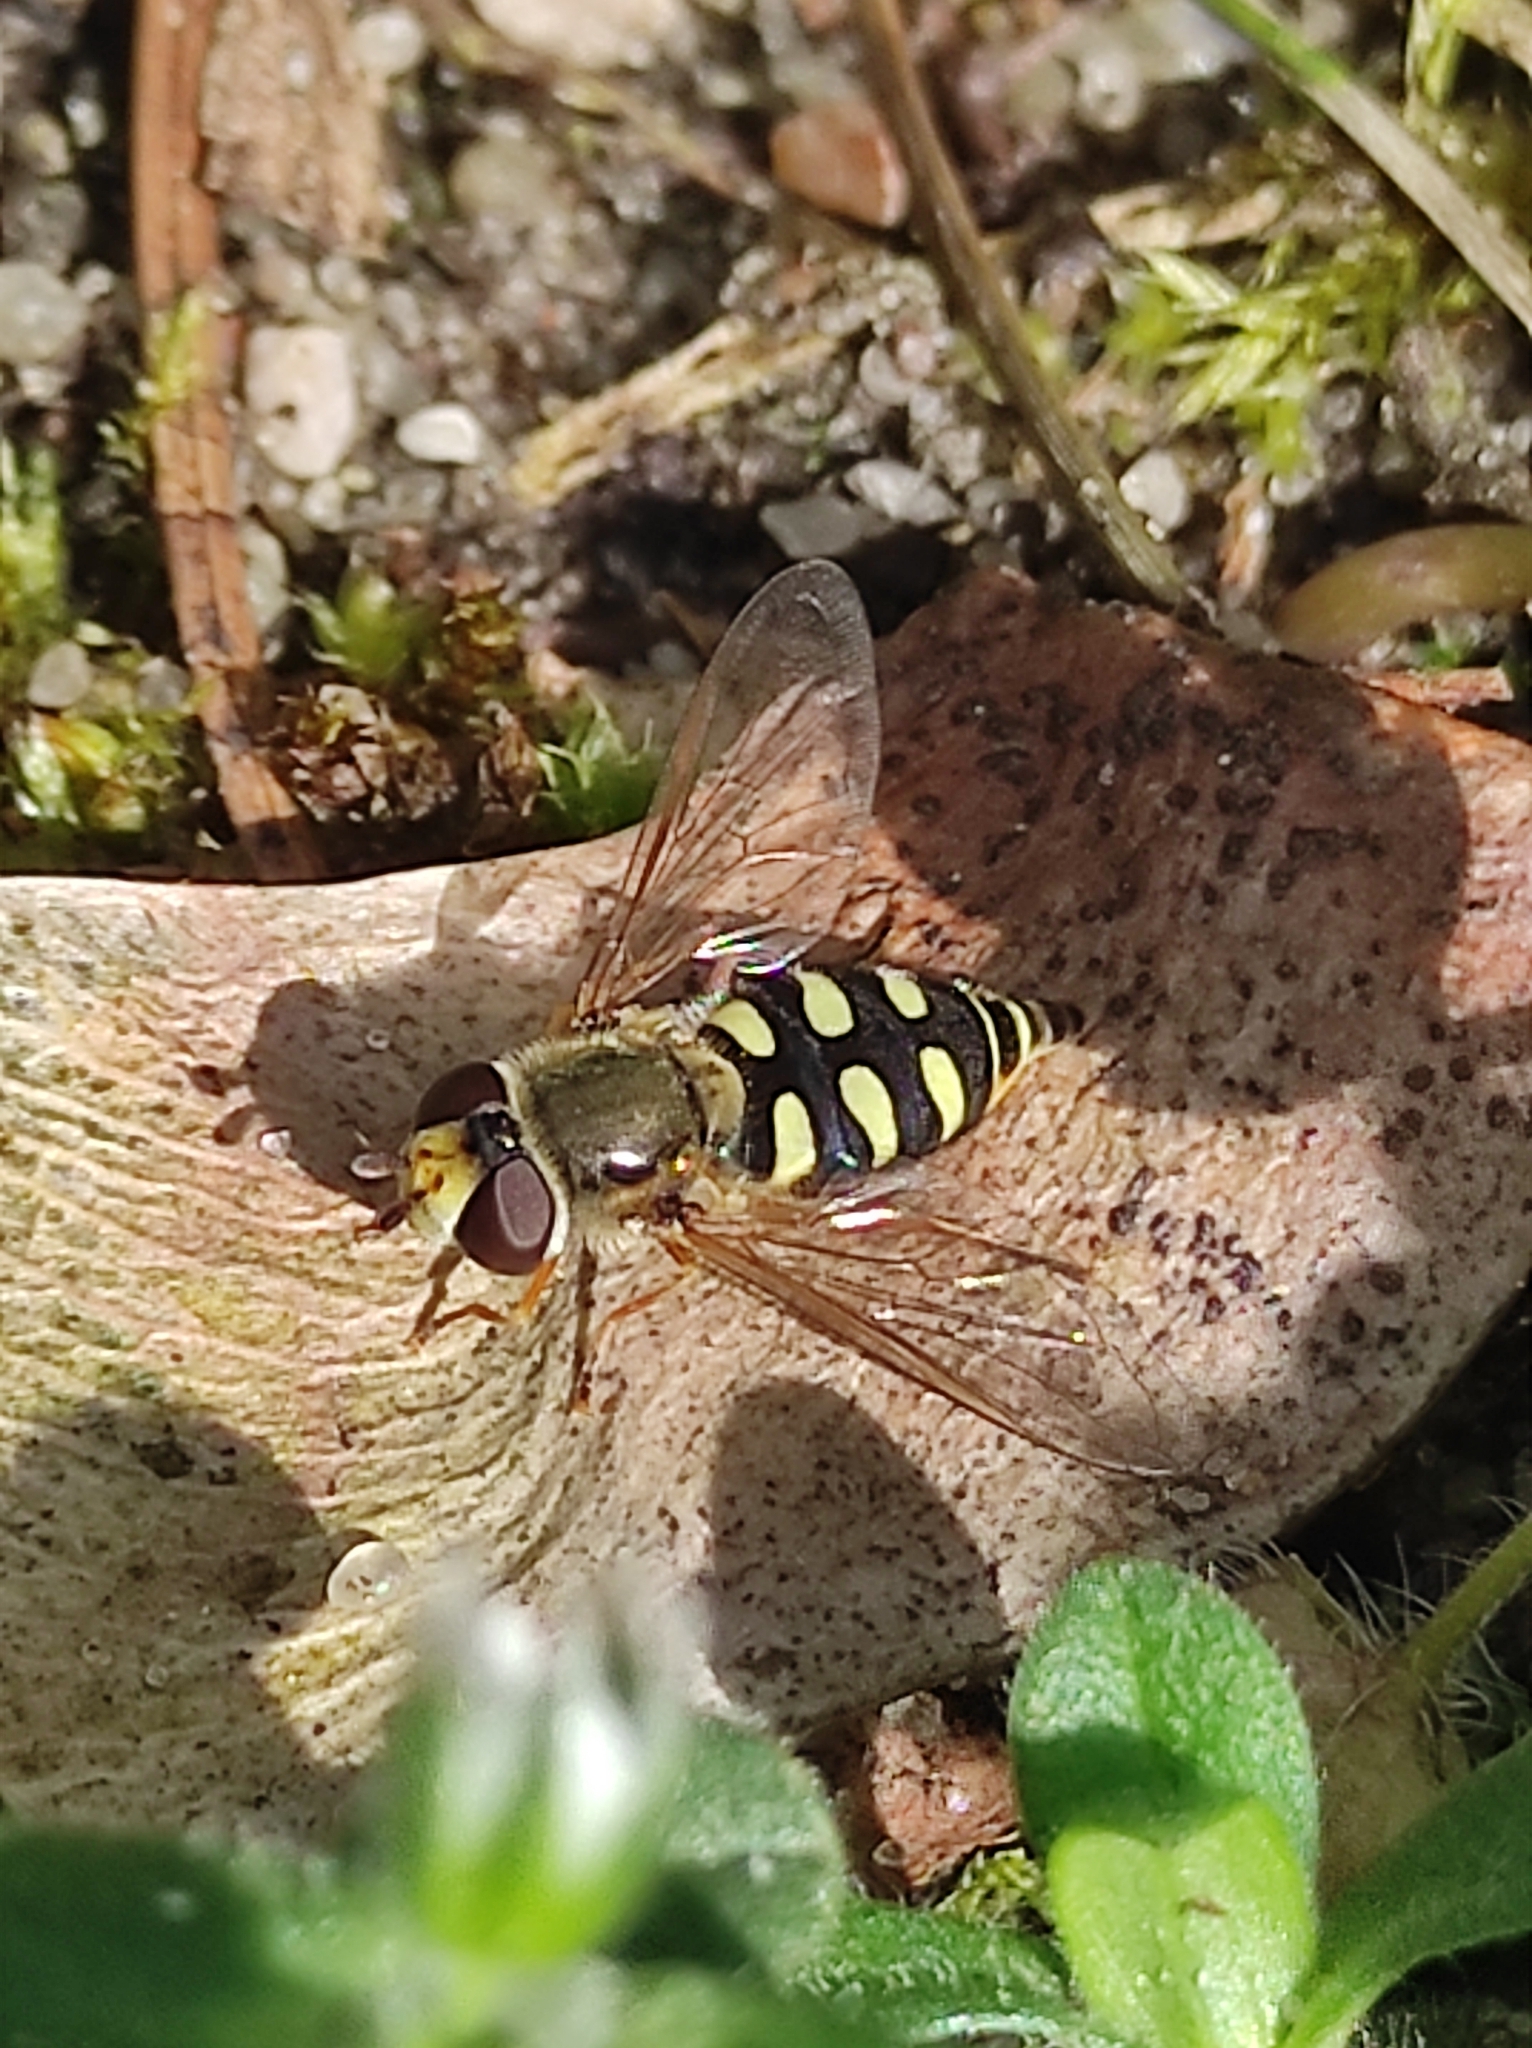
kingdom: Animalia
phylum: Arthropoda
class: Insecta
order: Diptera
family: Syrphidae
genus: Eupeodes
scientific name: Eupeodes corollae
